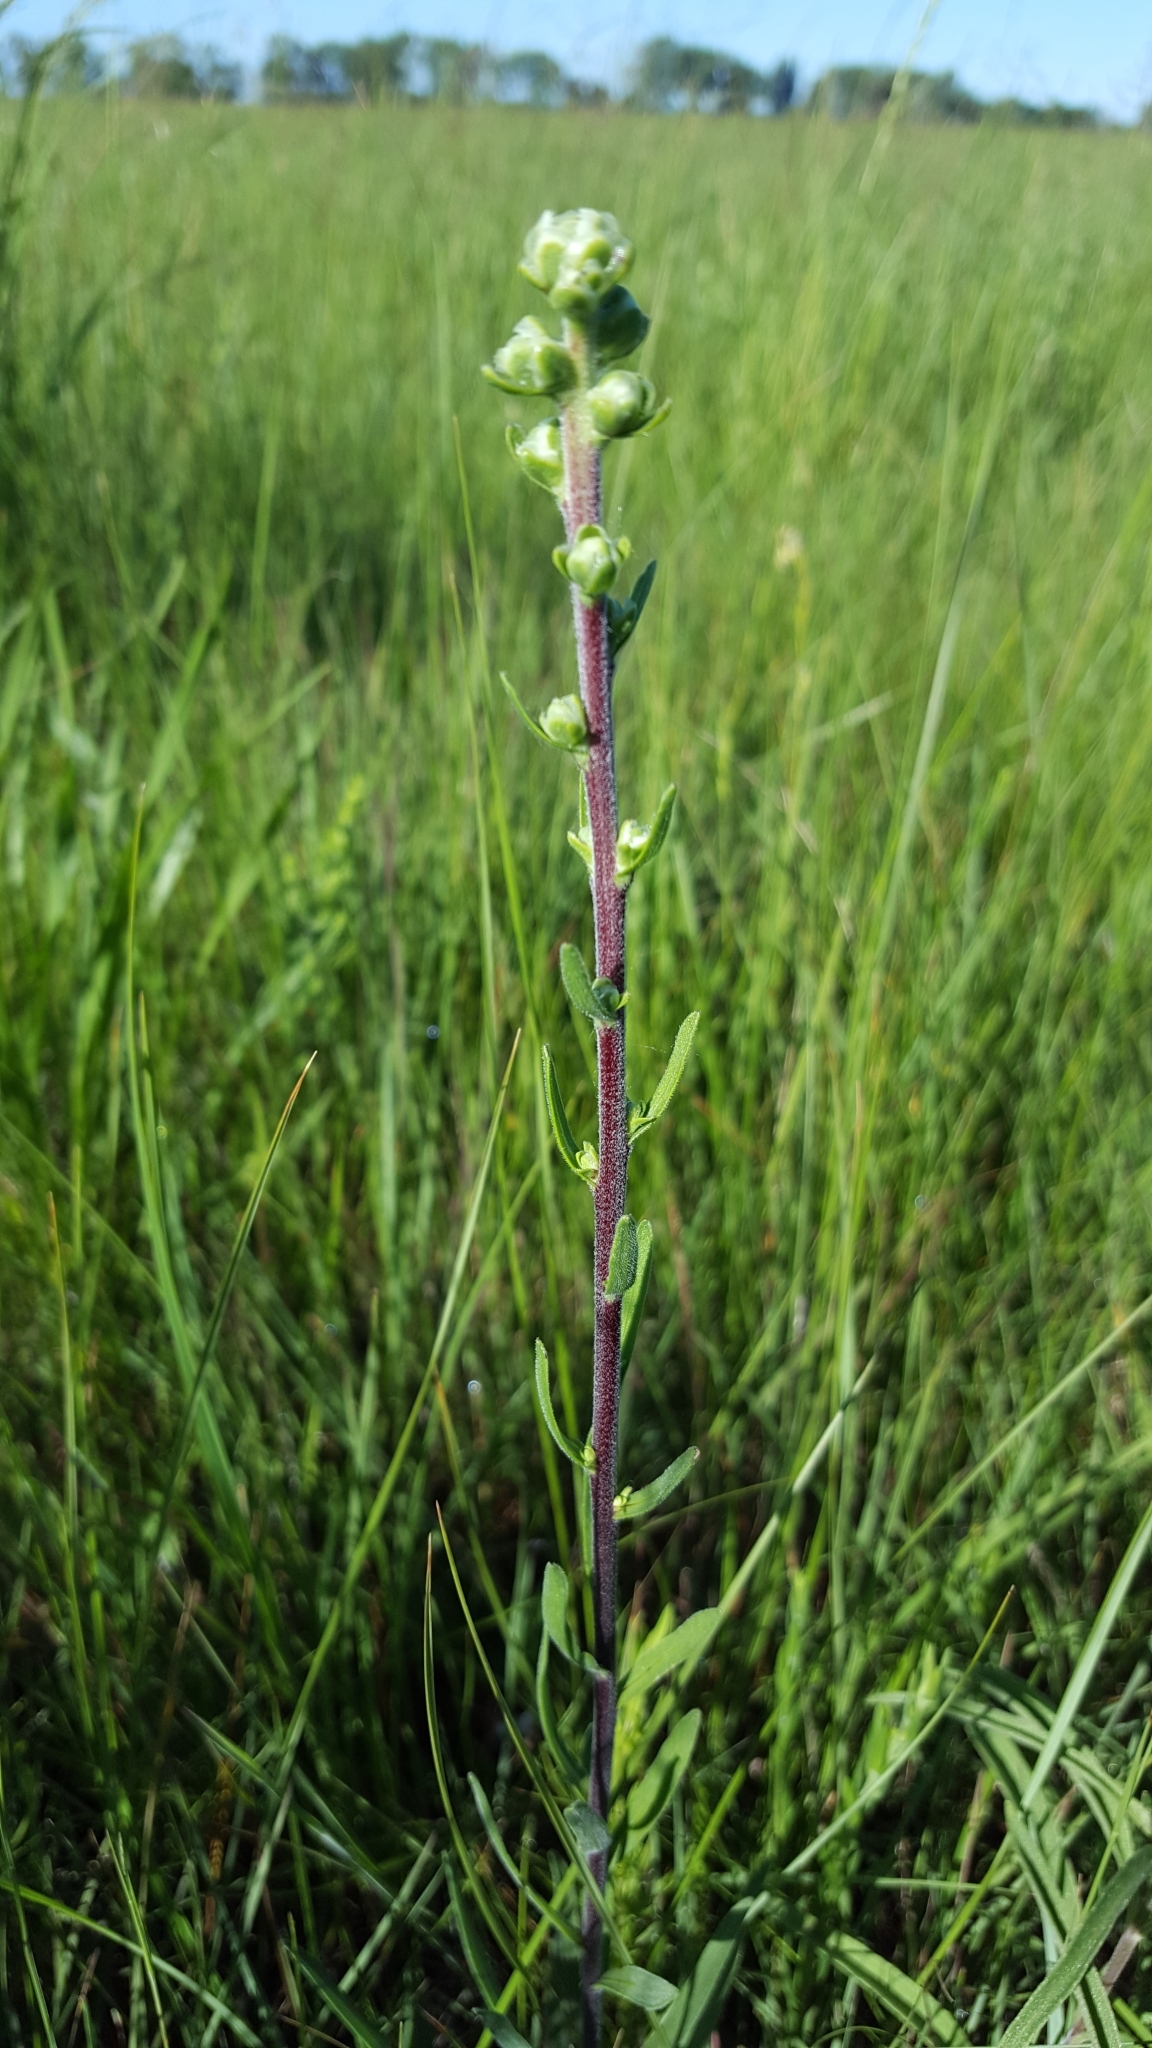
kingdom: Plantae
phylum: Tracheophyta
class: Magnoliopsida
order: Asterales
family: Asteraceae
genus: Liatris
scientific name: Liatris aspera
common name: Lacerate blazing-star
